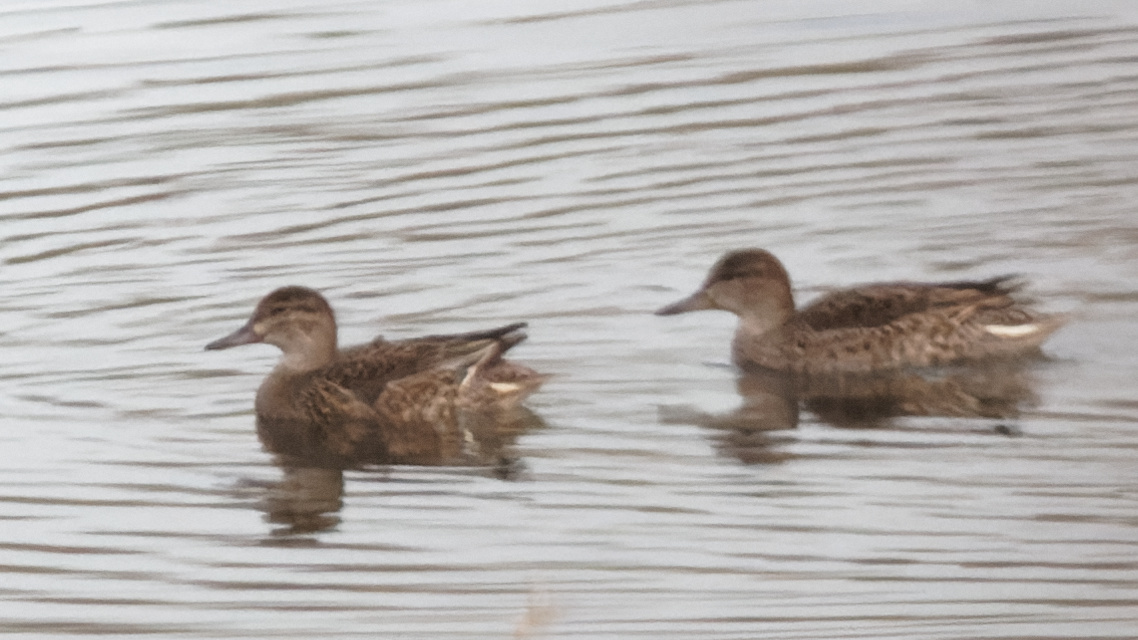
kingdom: Animalia
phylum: Chordata
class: Aves
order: Anseriformes
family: Anatidae
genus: Anas
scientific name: Anas crecca
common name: Eurasian teal
